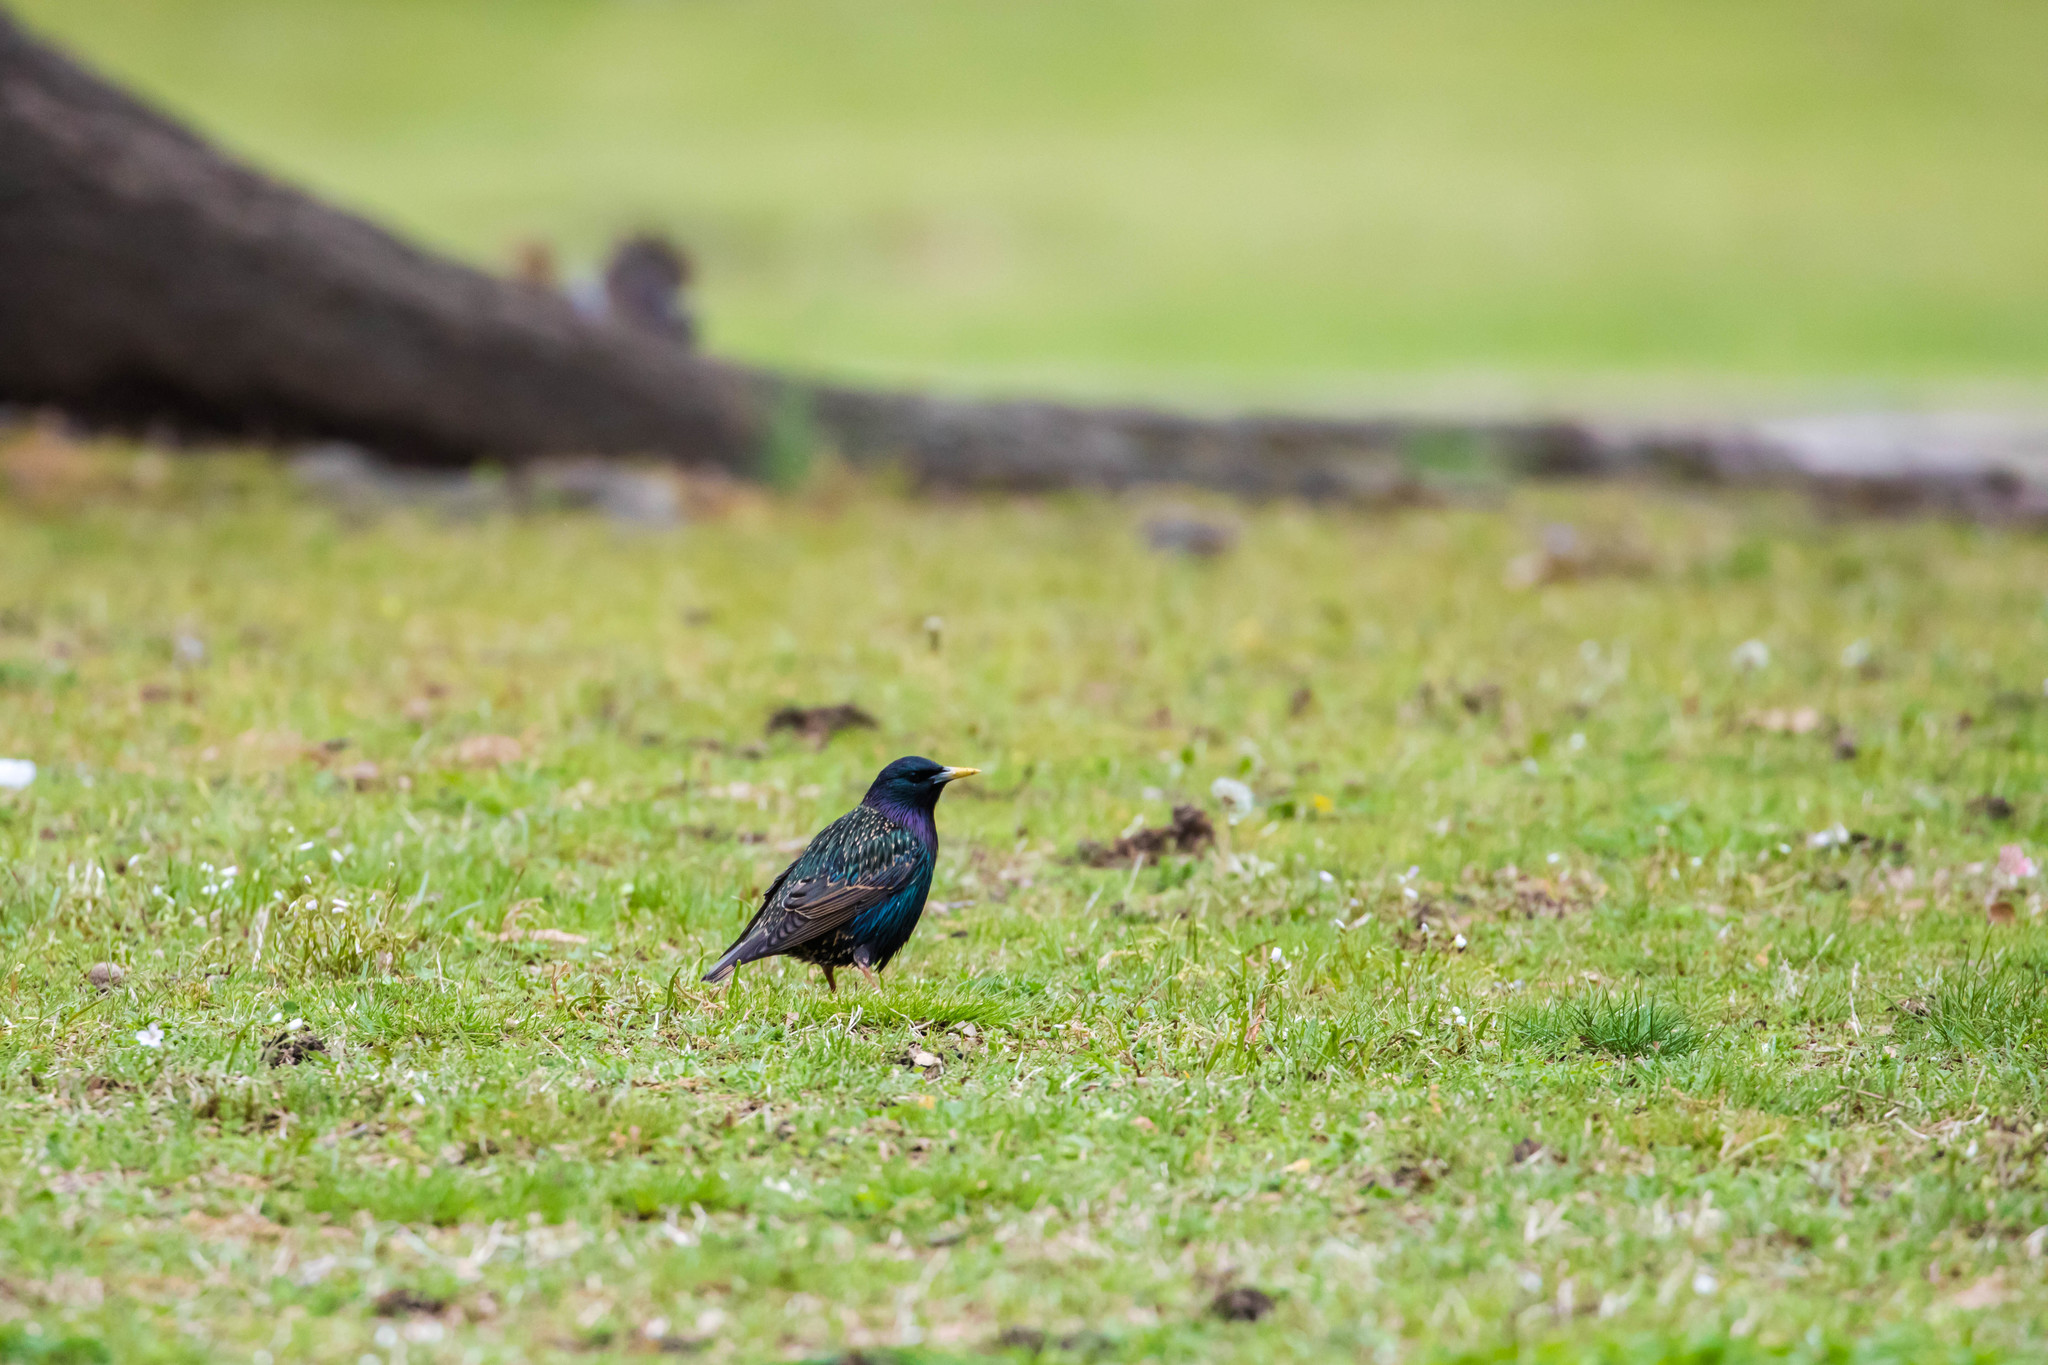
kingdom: Animalia
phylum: Chordata
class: Aves
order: Passeriformes
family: Sturnidae
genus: Sturnus
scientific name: Sturnus vulgaris
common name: Common starling
